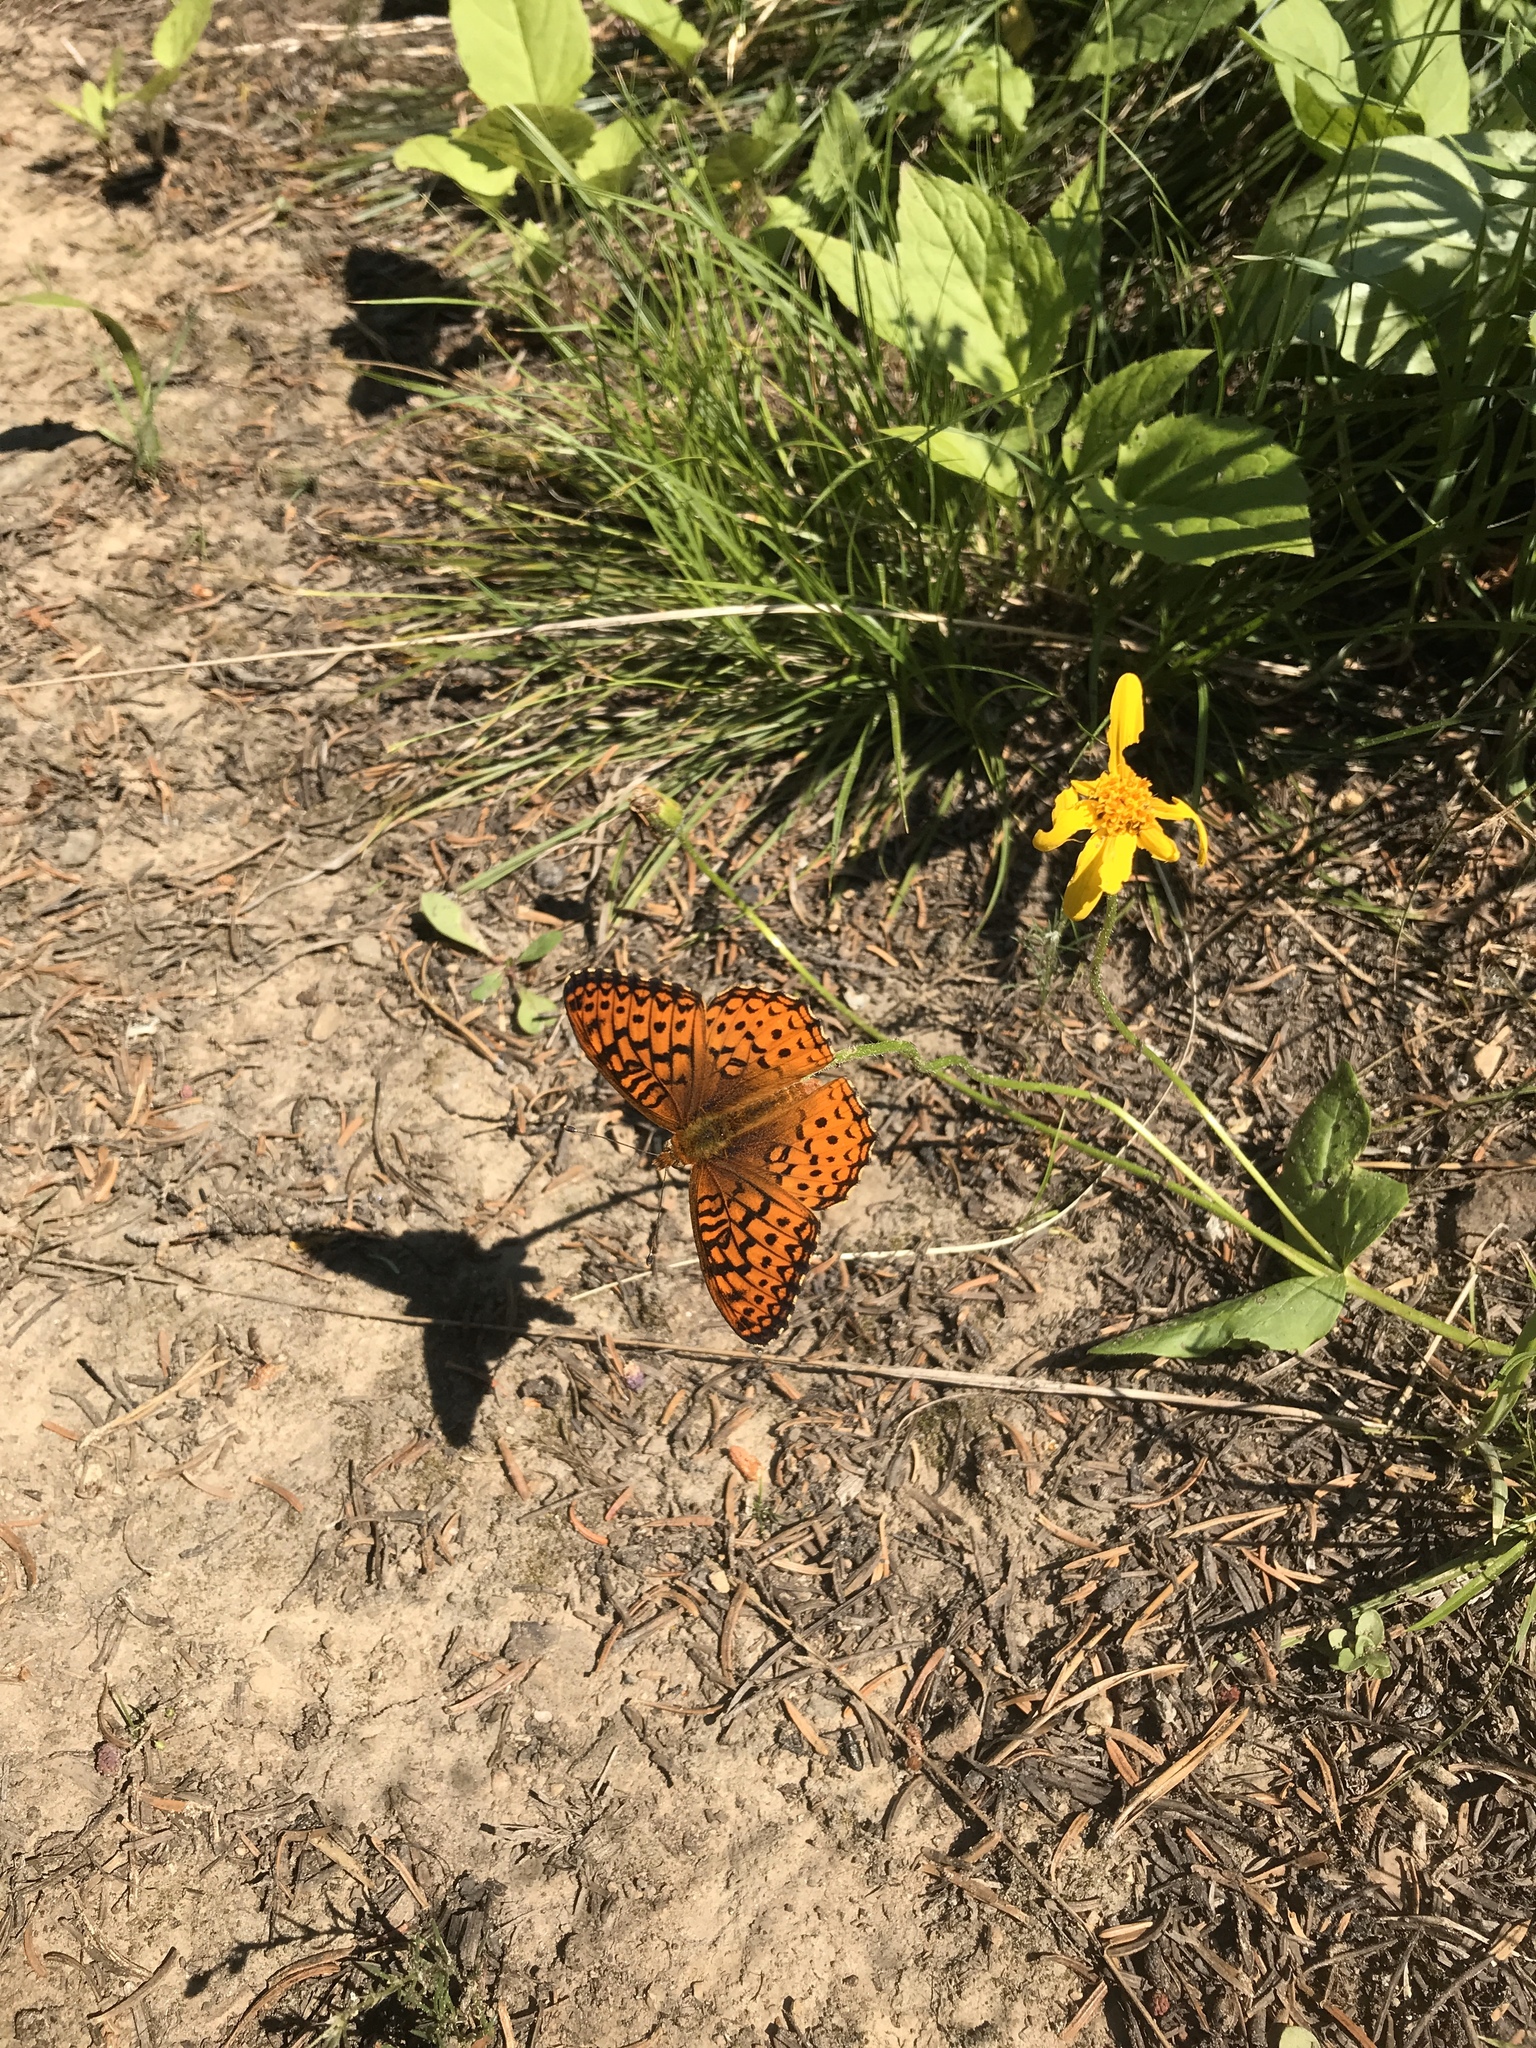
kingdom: Animalia
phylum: Arthropoda
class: Insecta
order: Lepidoptera
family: Nymphalidae
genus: Speyeria
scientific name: Speyeria atlantis
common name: Atlantis fritillary
